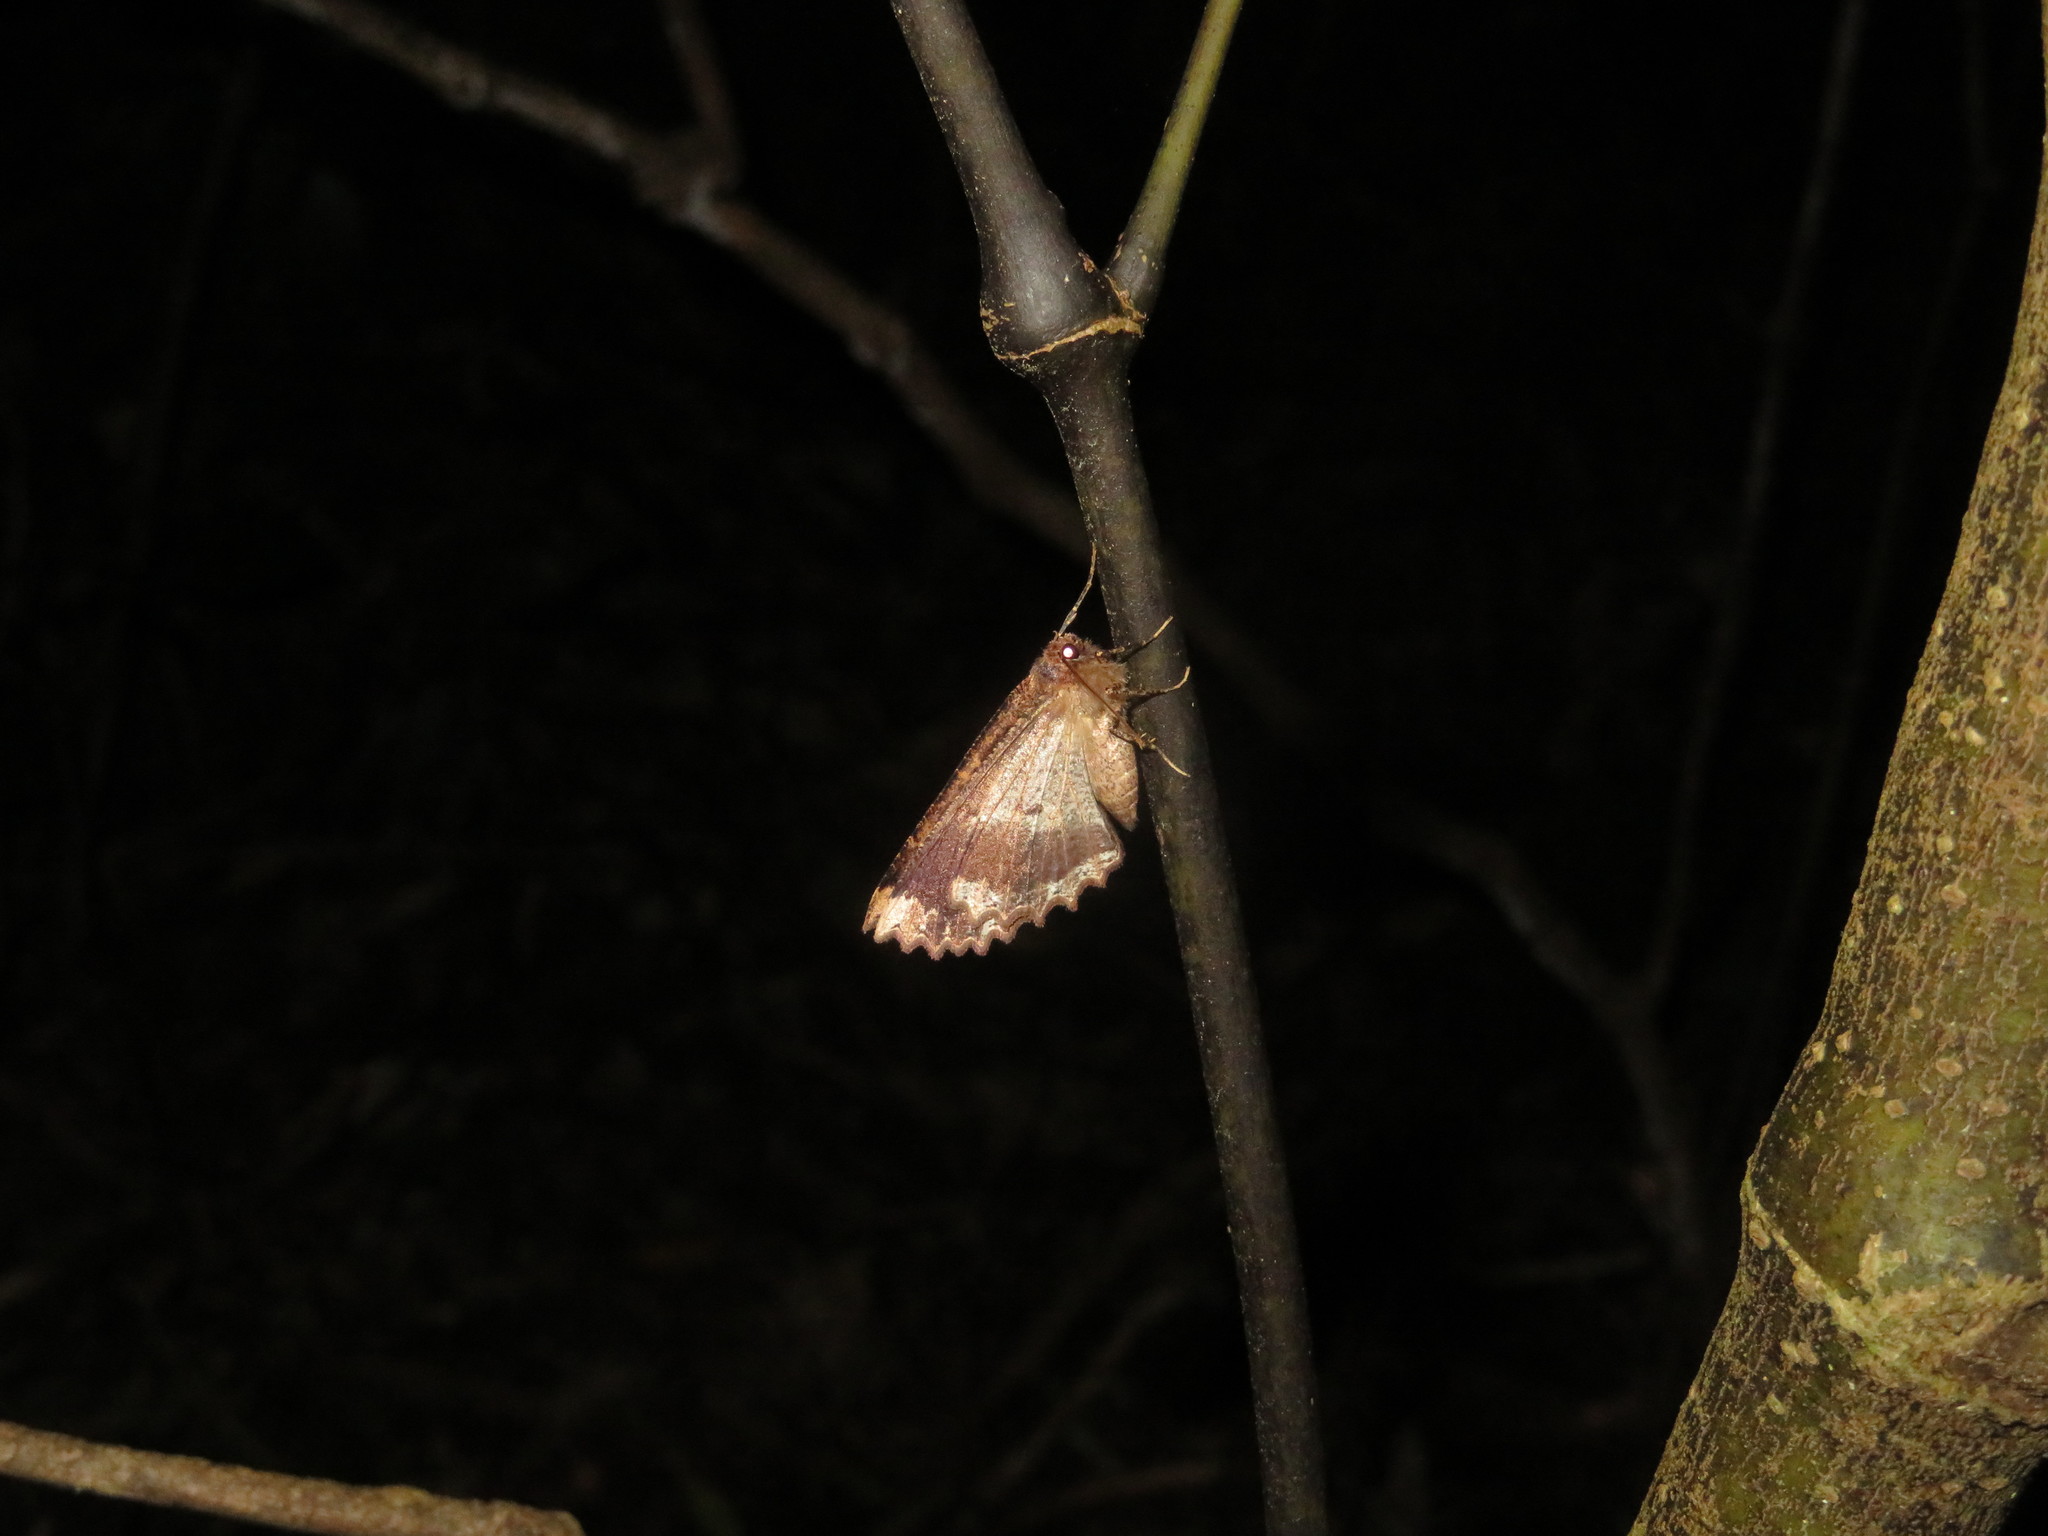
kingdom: Animalia
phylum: Arthropoda
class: Insecta
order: Lepidoptera
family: Geometridae
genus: Gellonia
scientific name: Gellonia dejectaria
